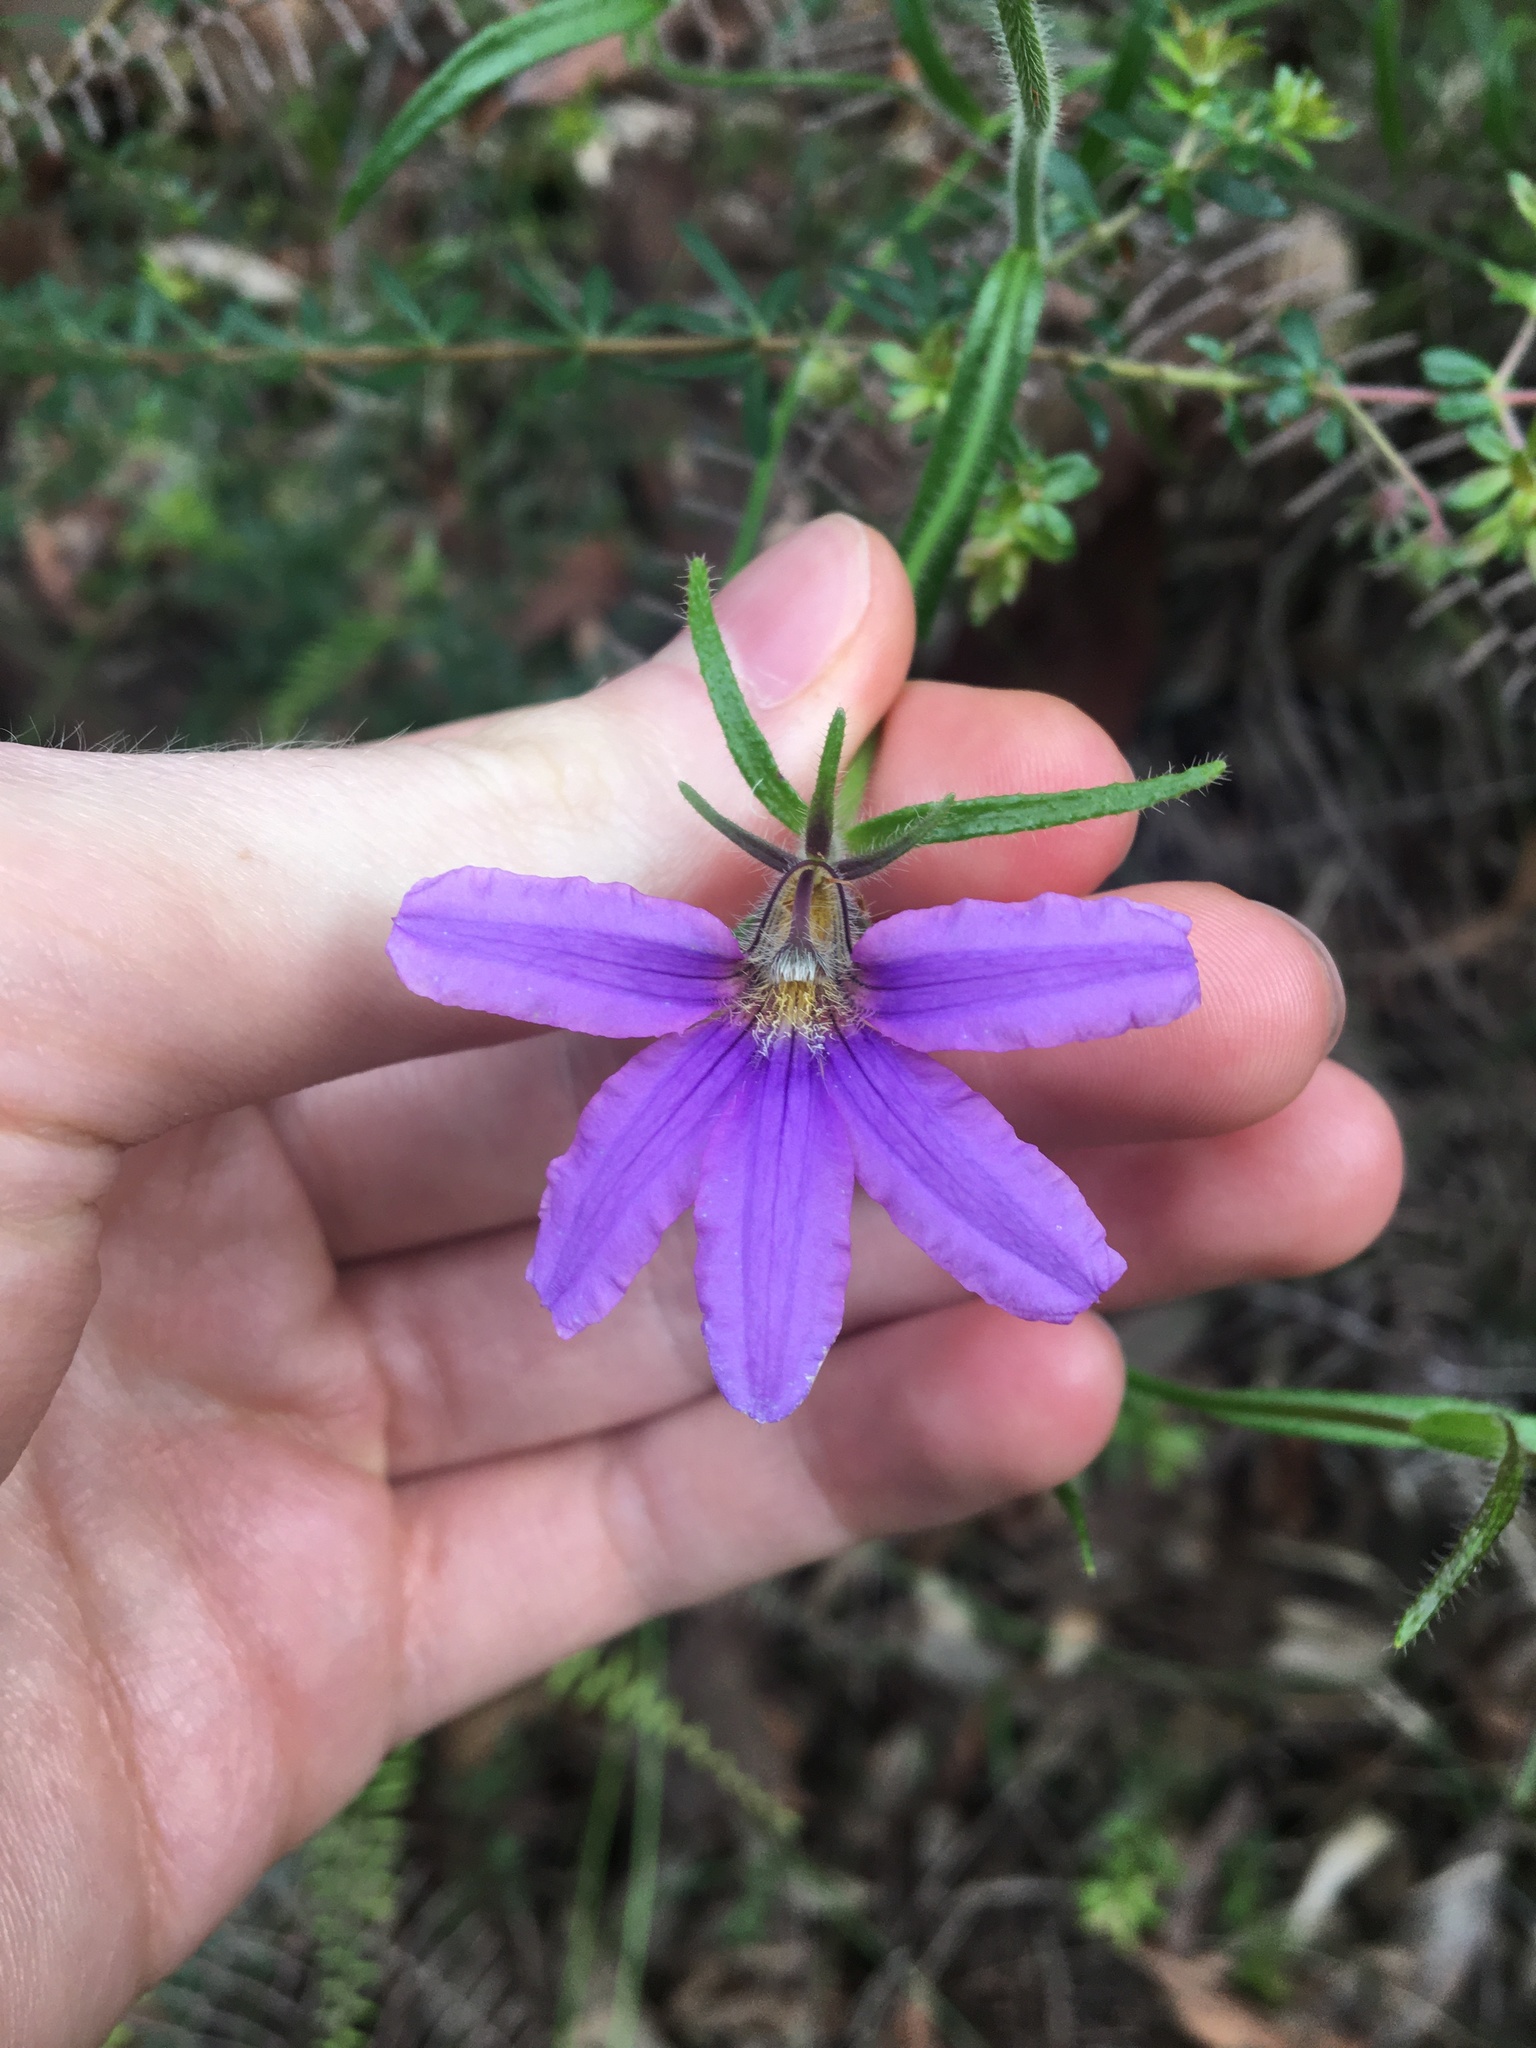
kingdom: Plantae
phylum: Tracheophyta
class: Magnoliopsida
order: Asterales
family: Goodeniaceae
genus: Scaevola
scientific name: Scaevola ramosissima
